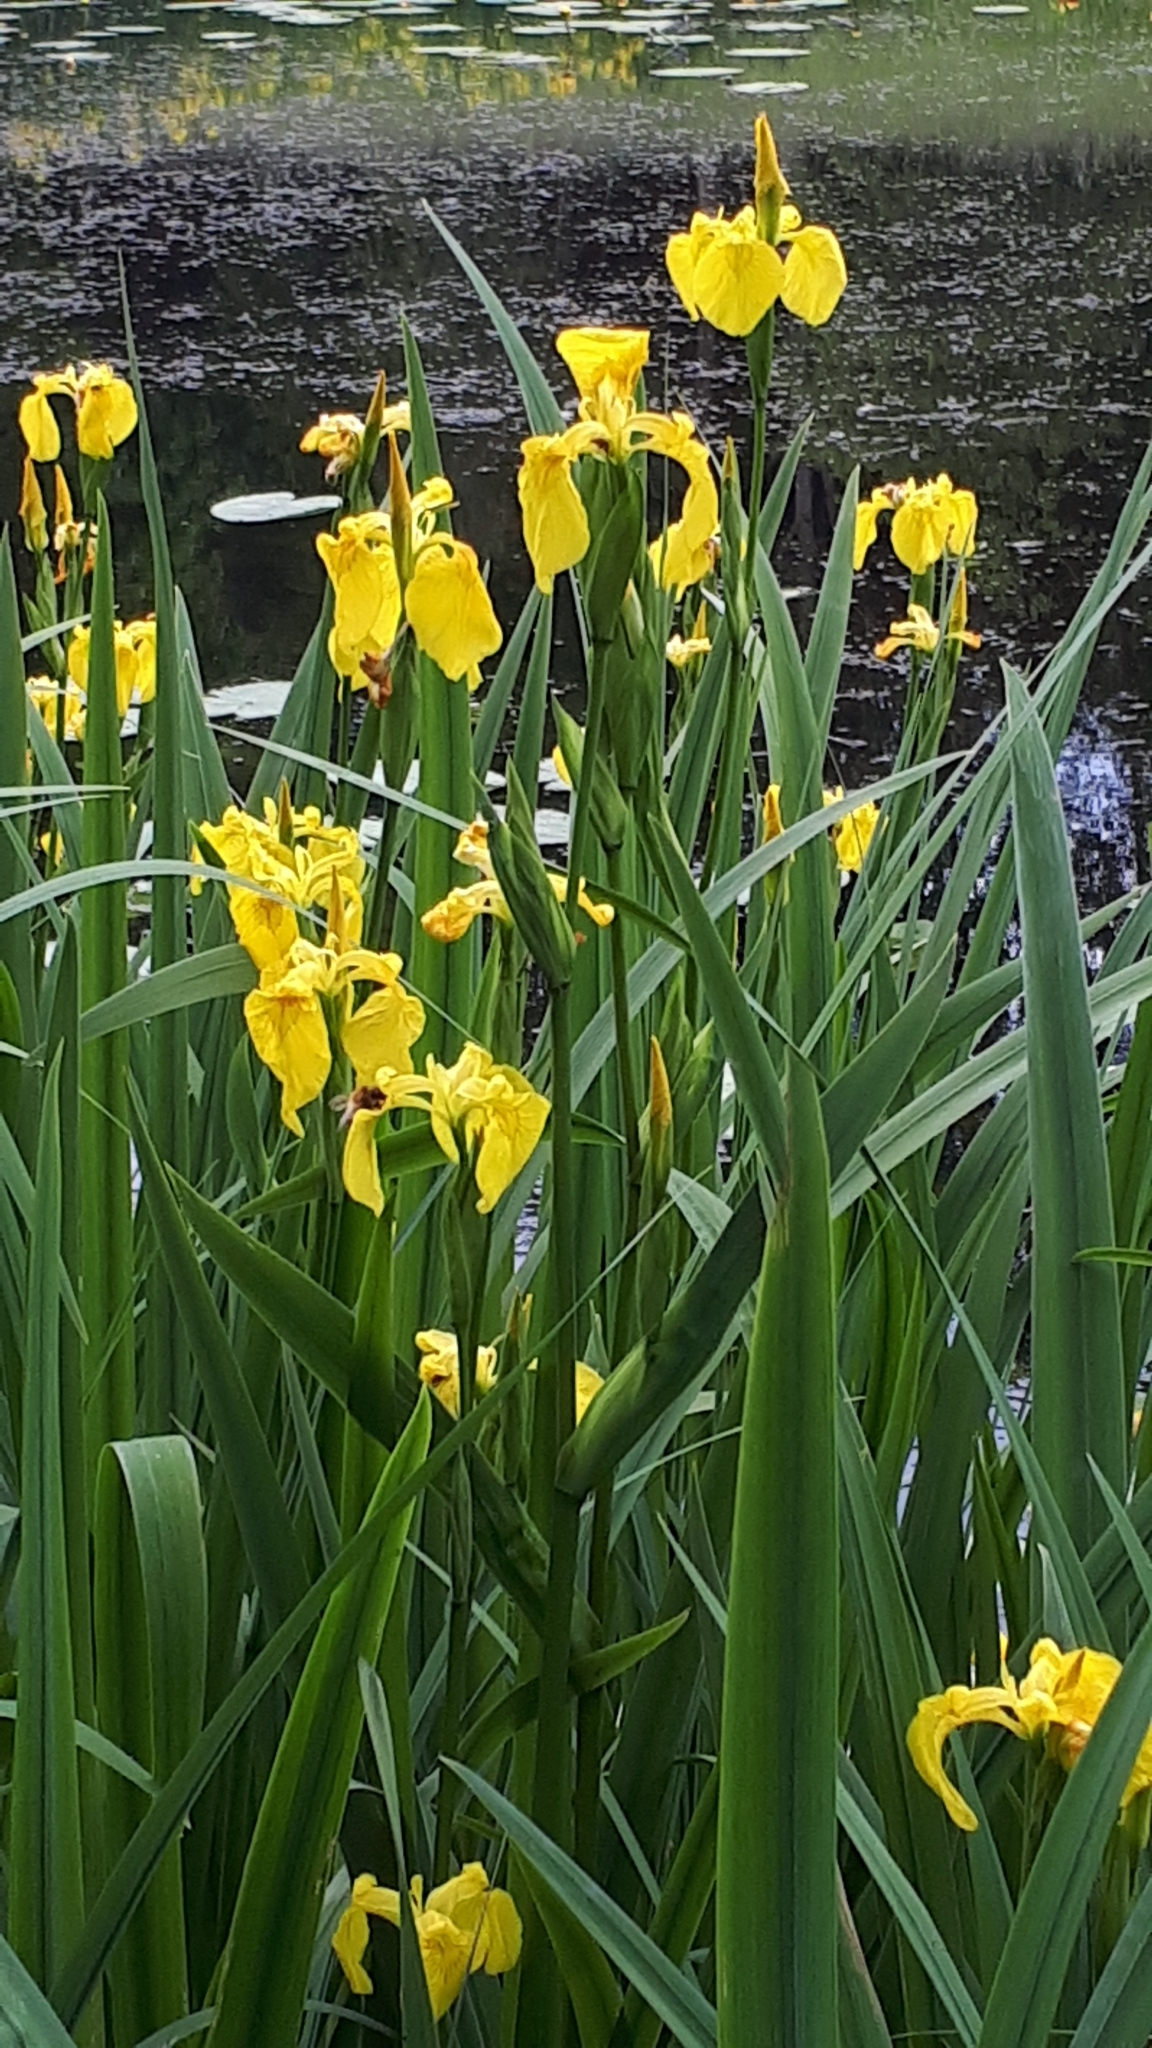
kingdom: Plantae
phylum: Tracheophyta
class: Liliopsida
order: Asparagales
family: Iridaceae
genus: Iris
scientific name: Iris pseudacorus
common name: Yellow flag
